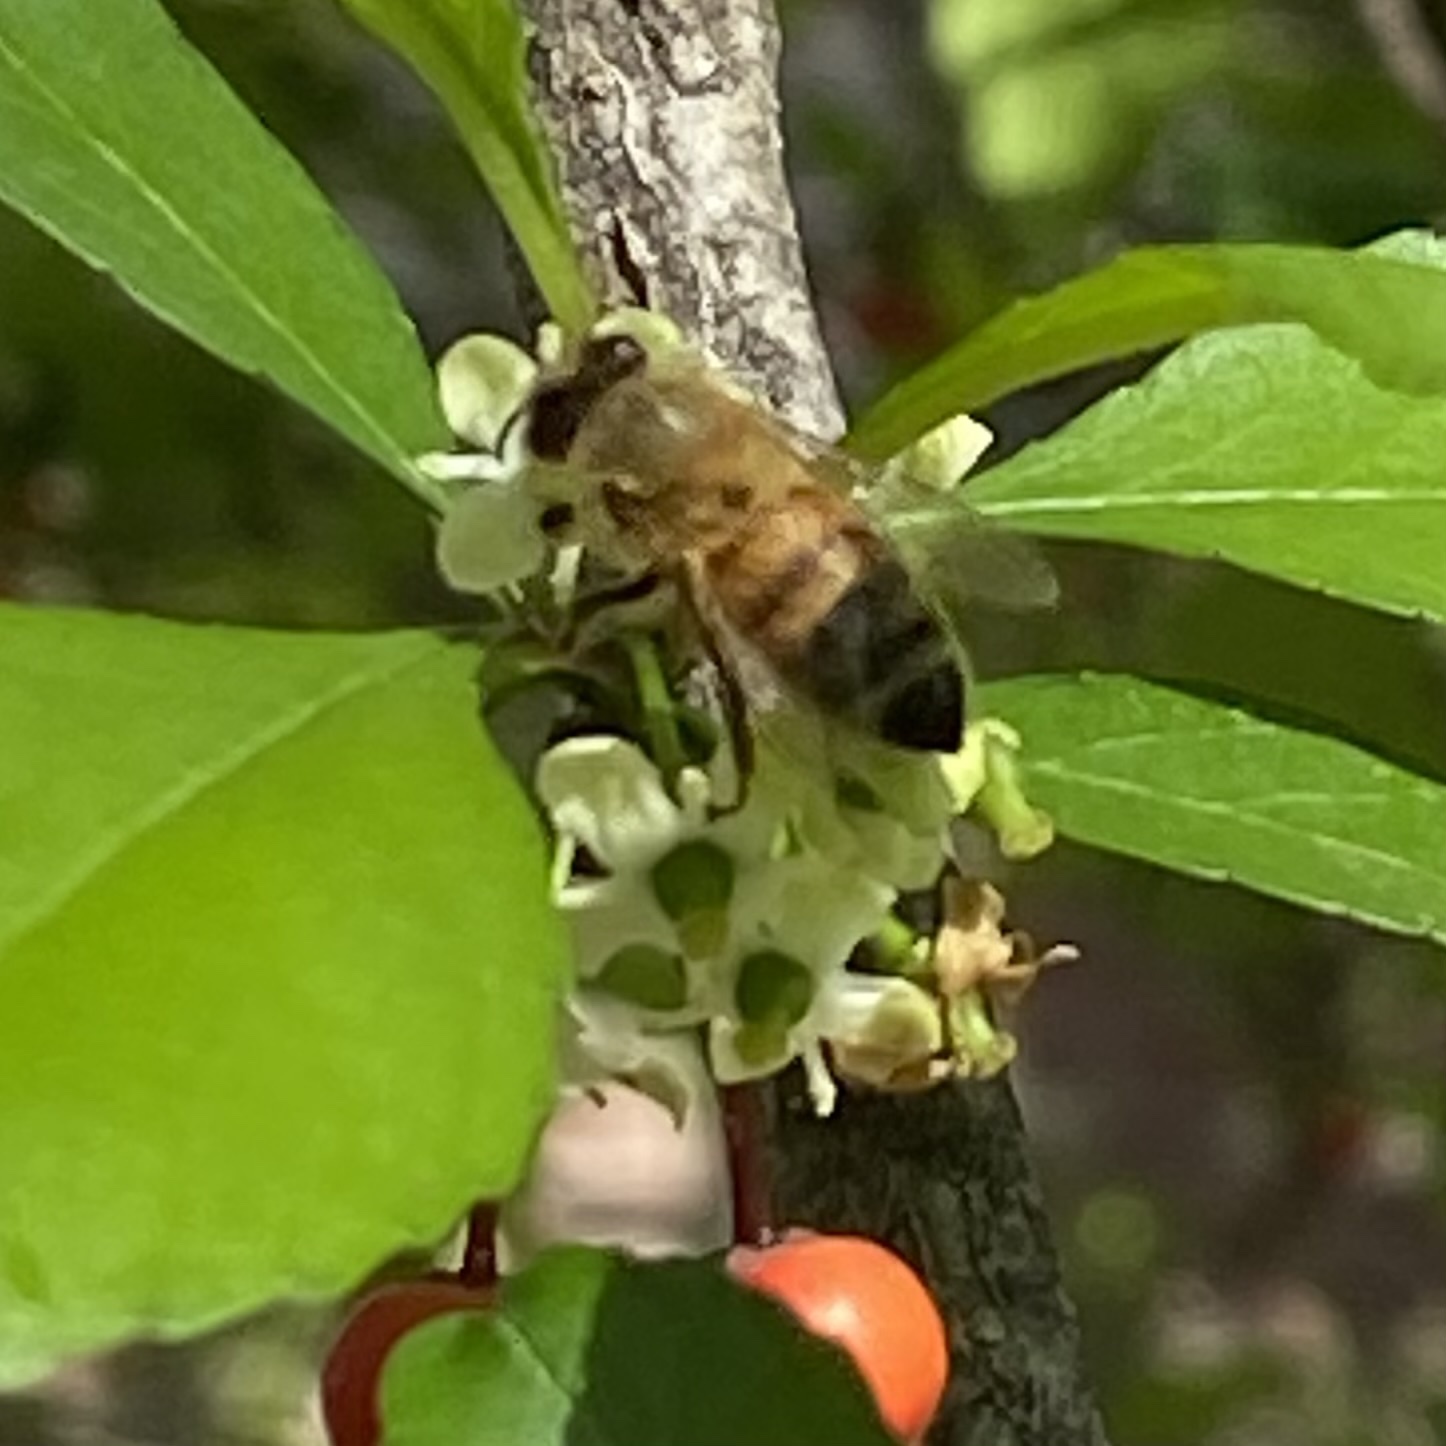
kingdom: Animalia
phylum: Arthropoda
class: Insecta
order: Hymenoptera
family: Apidae
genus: Apis
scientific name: Apis mellifera
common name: Honey bee
